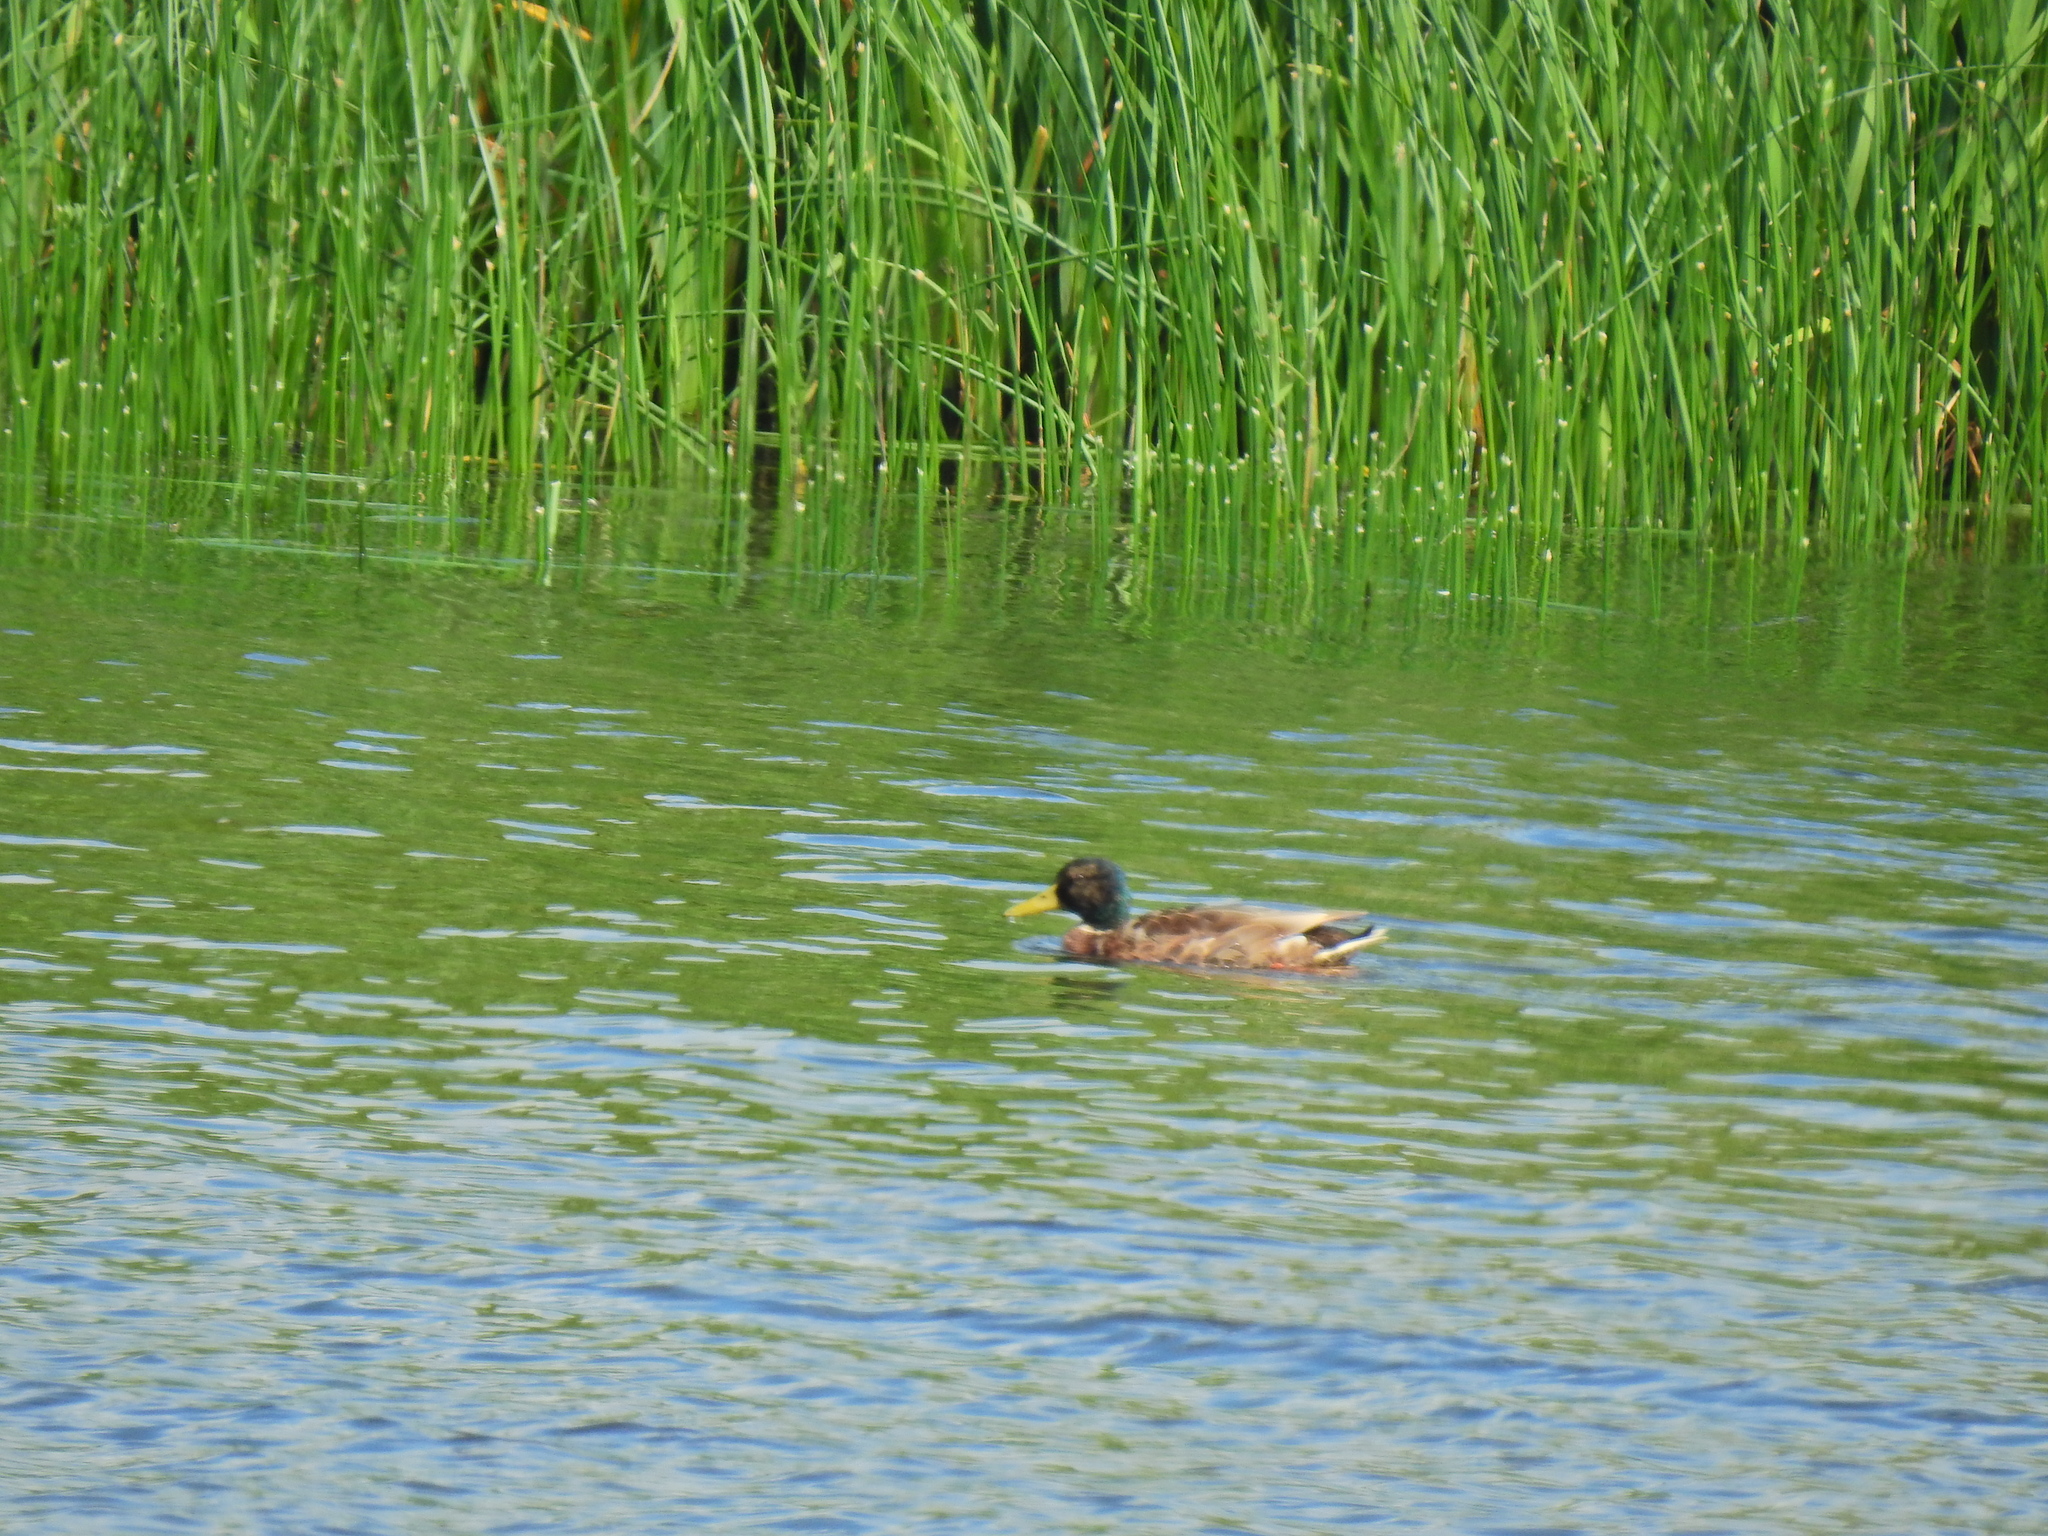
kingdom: Animalia
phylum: Chordata
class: Aves
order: Anseriformes
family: Anatidae
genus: Anas
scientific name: Anas platyrhynchos
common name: Mallard
